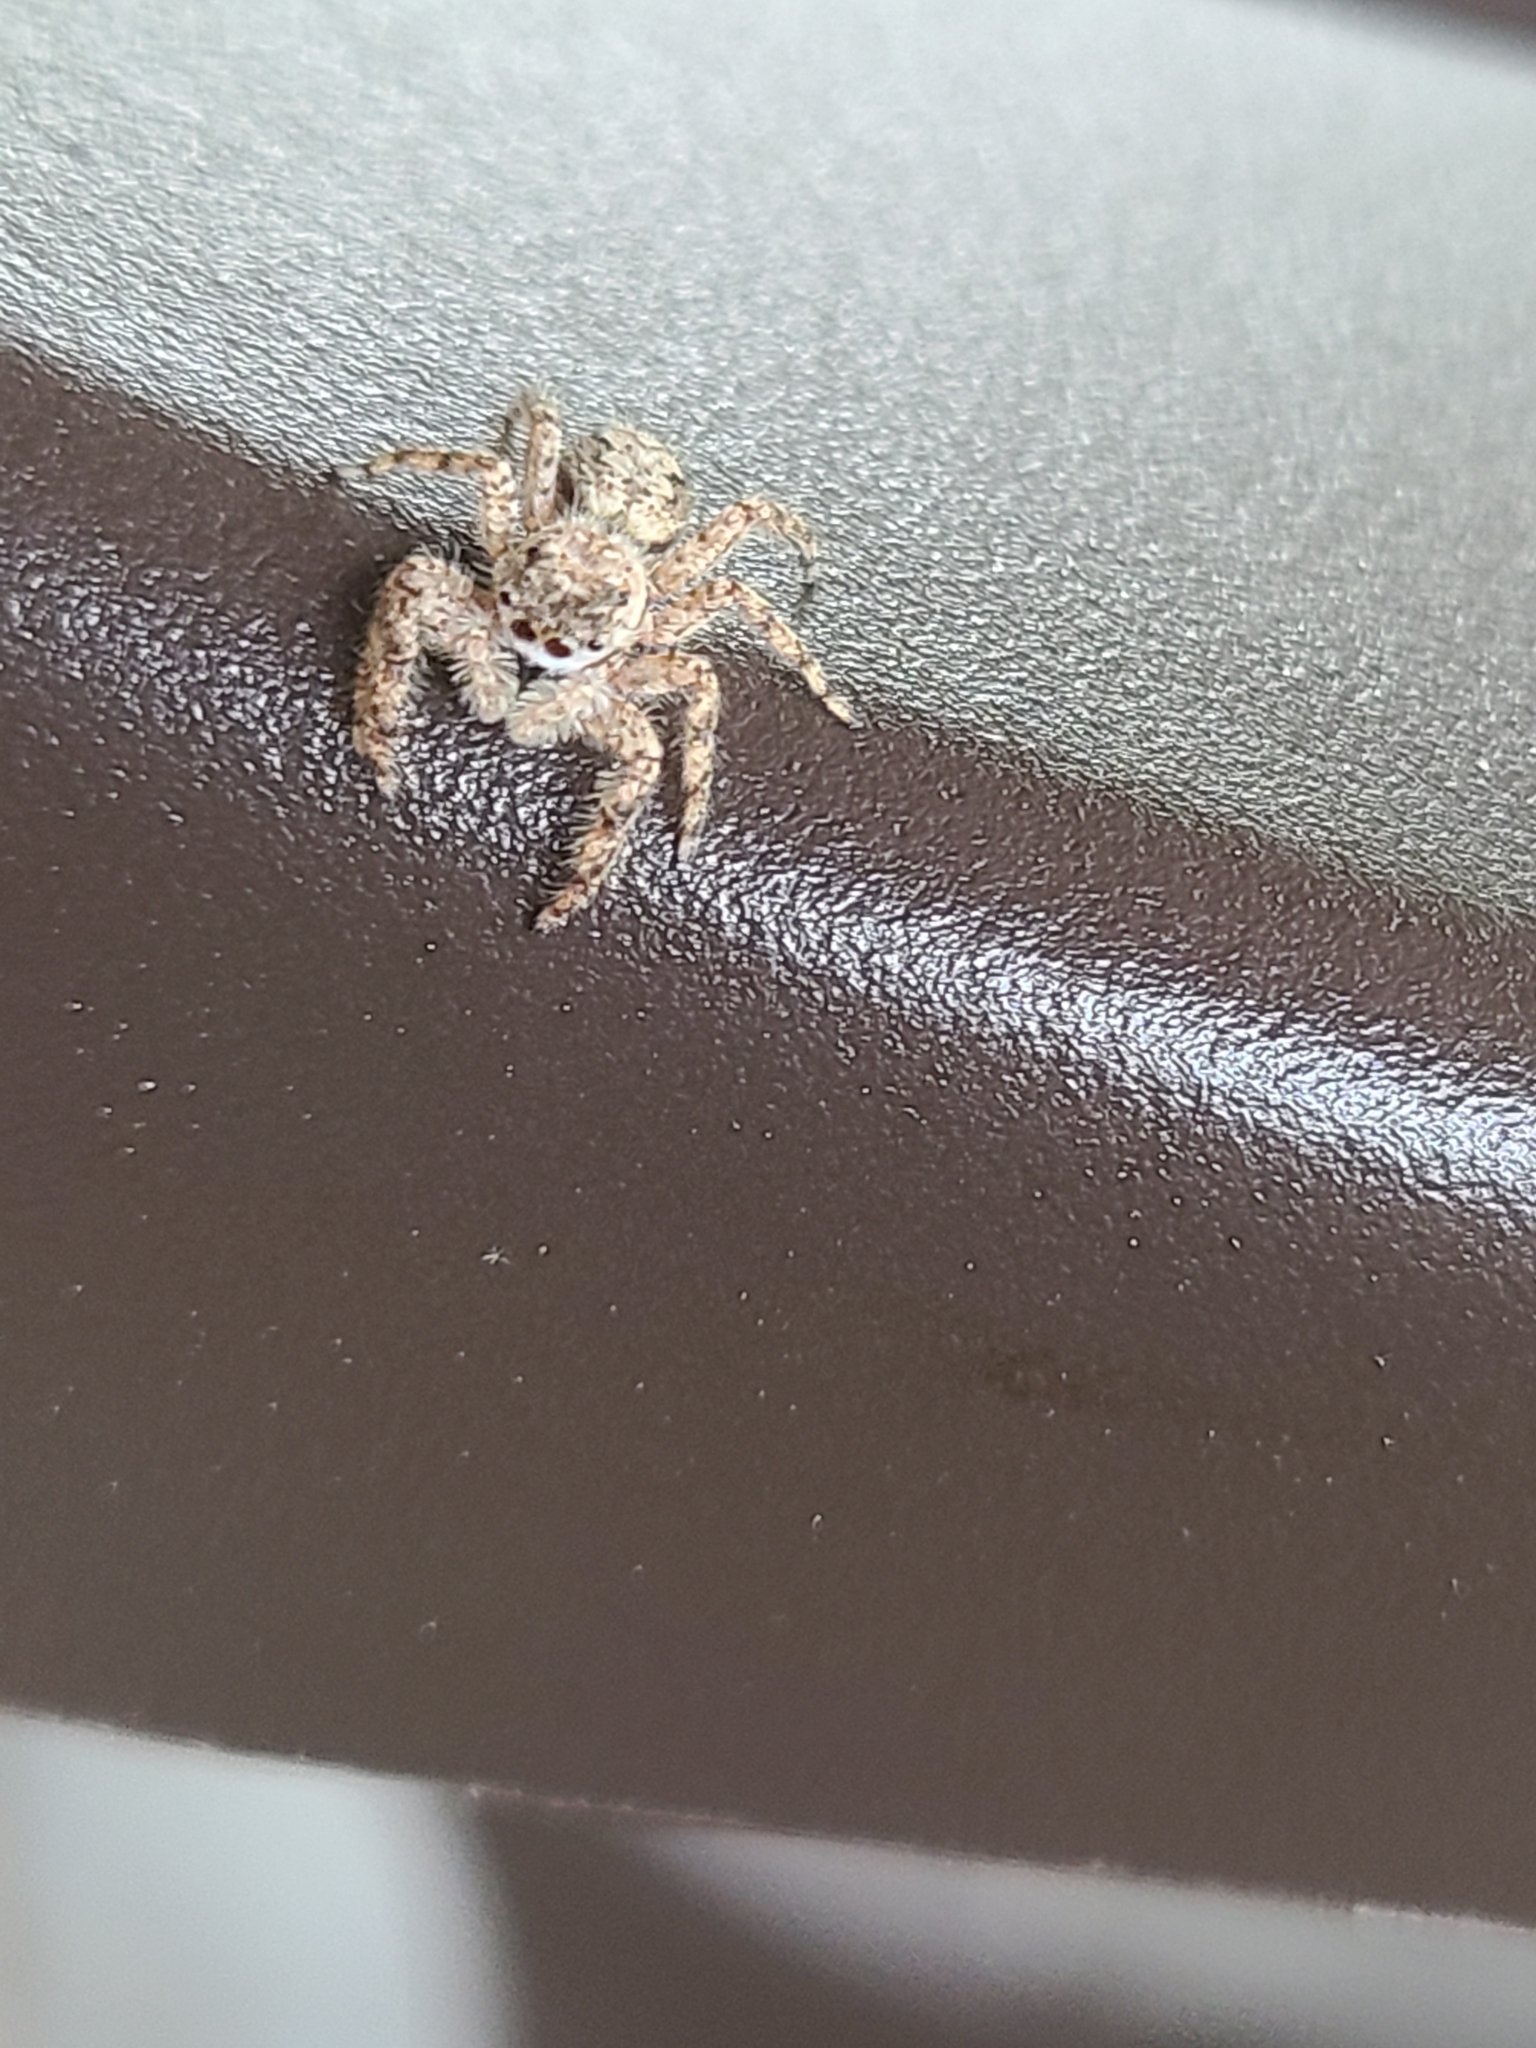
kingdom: Animalia
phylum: Arthropoda
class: Arachnida
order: Araneae
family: Salticidae
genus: Platycryptus
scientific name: Platycryptus undatus
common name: Tan jumping spider
